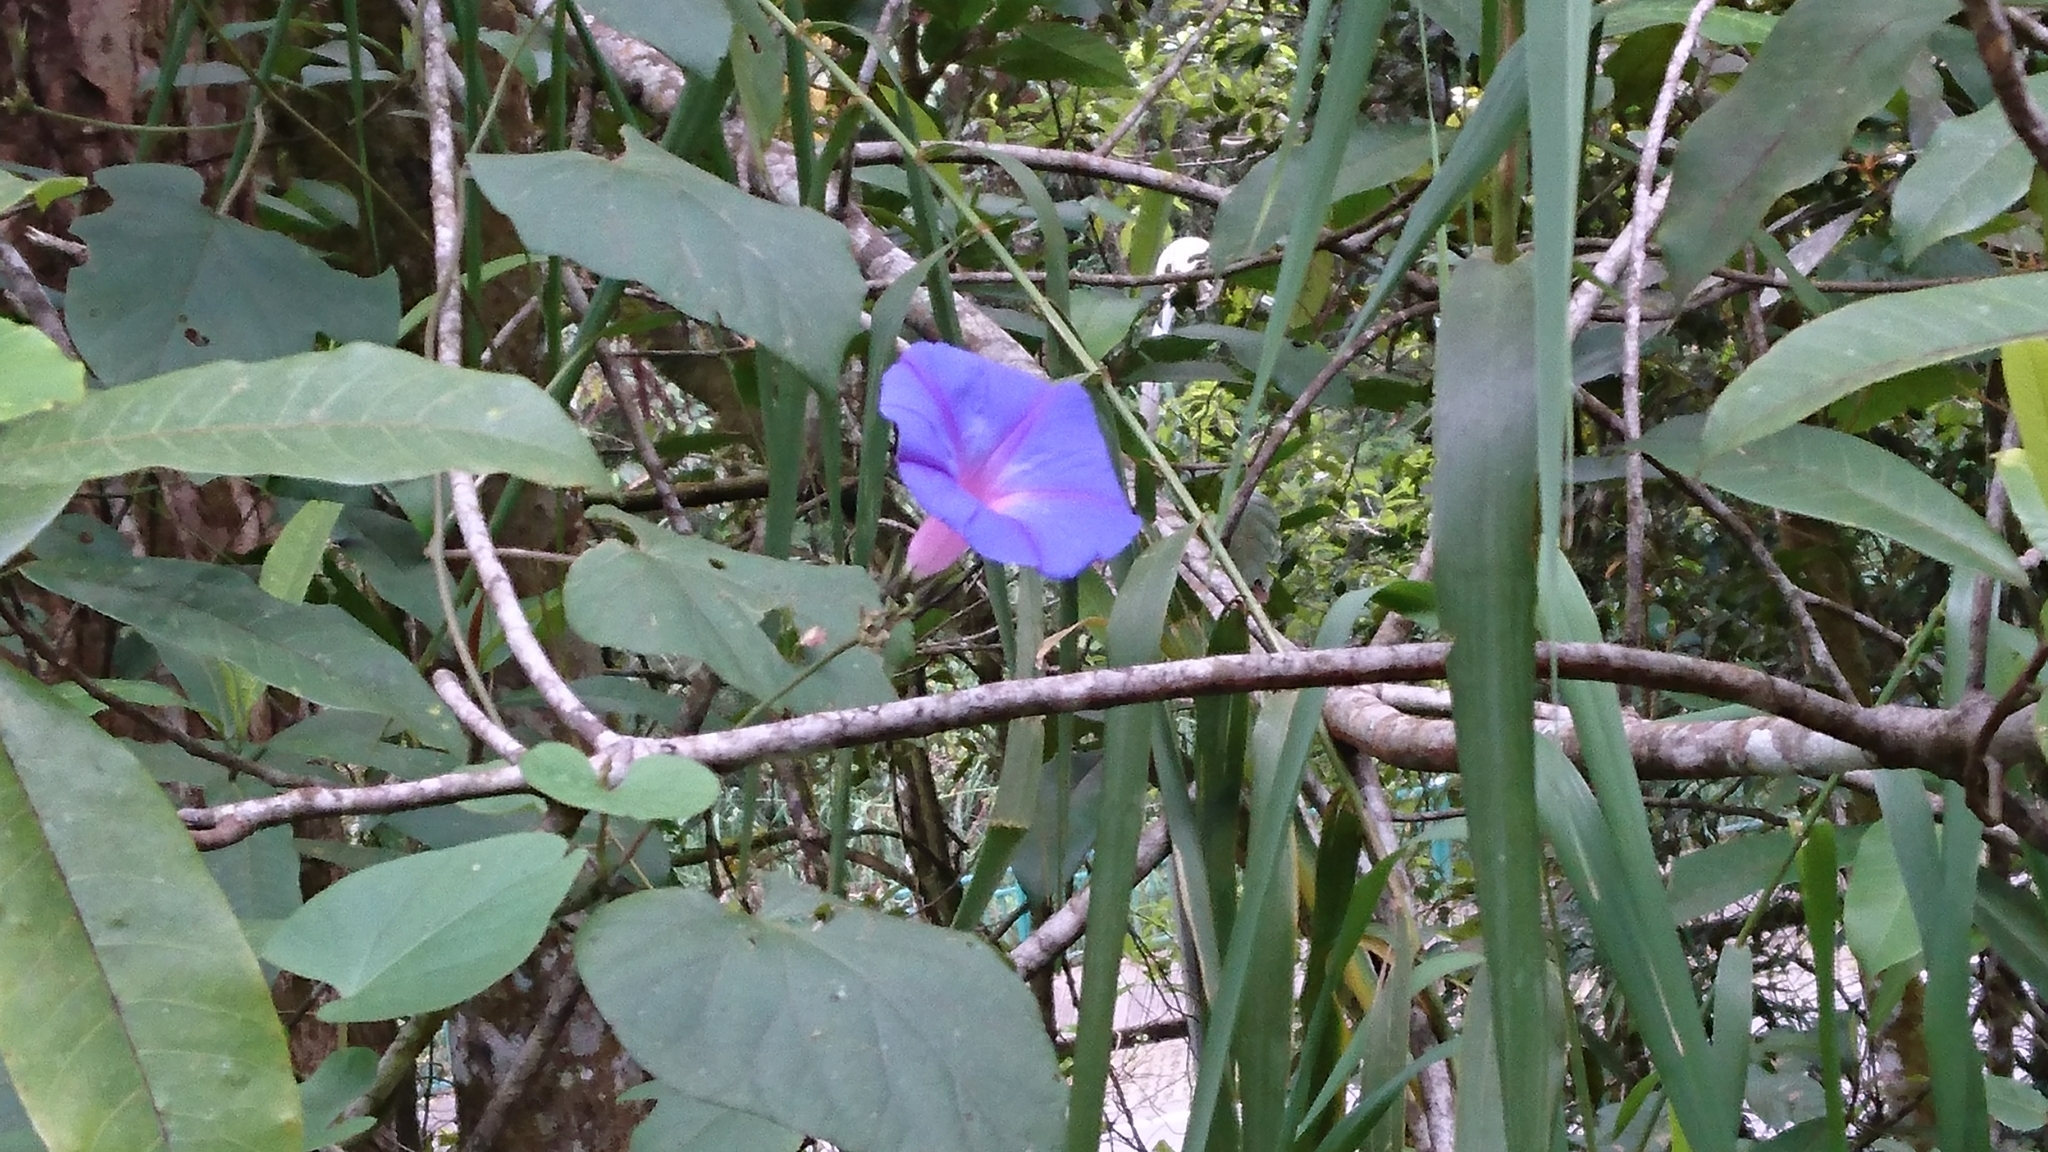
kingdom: Plantae
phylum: Tracheophyta
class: Magnoliopsida
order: Solanales
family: Convolvulaceae
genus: Ipomoea
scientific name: Ipomoea indica
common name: Blue dawnflower
